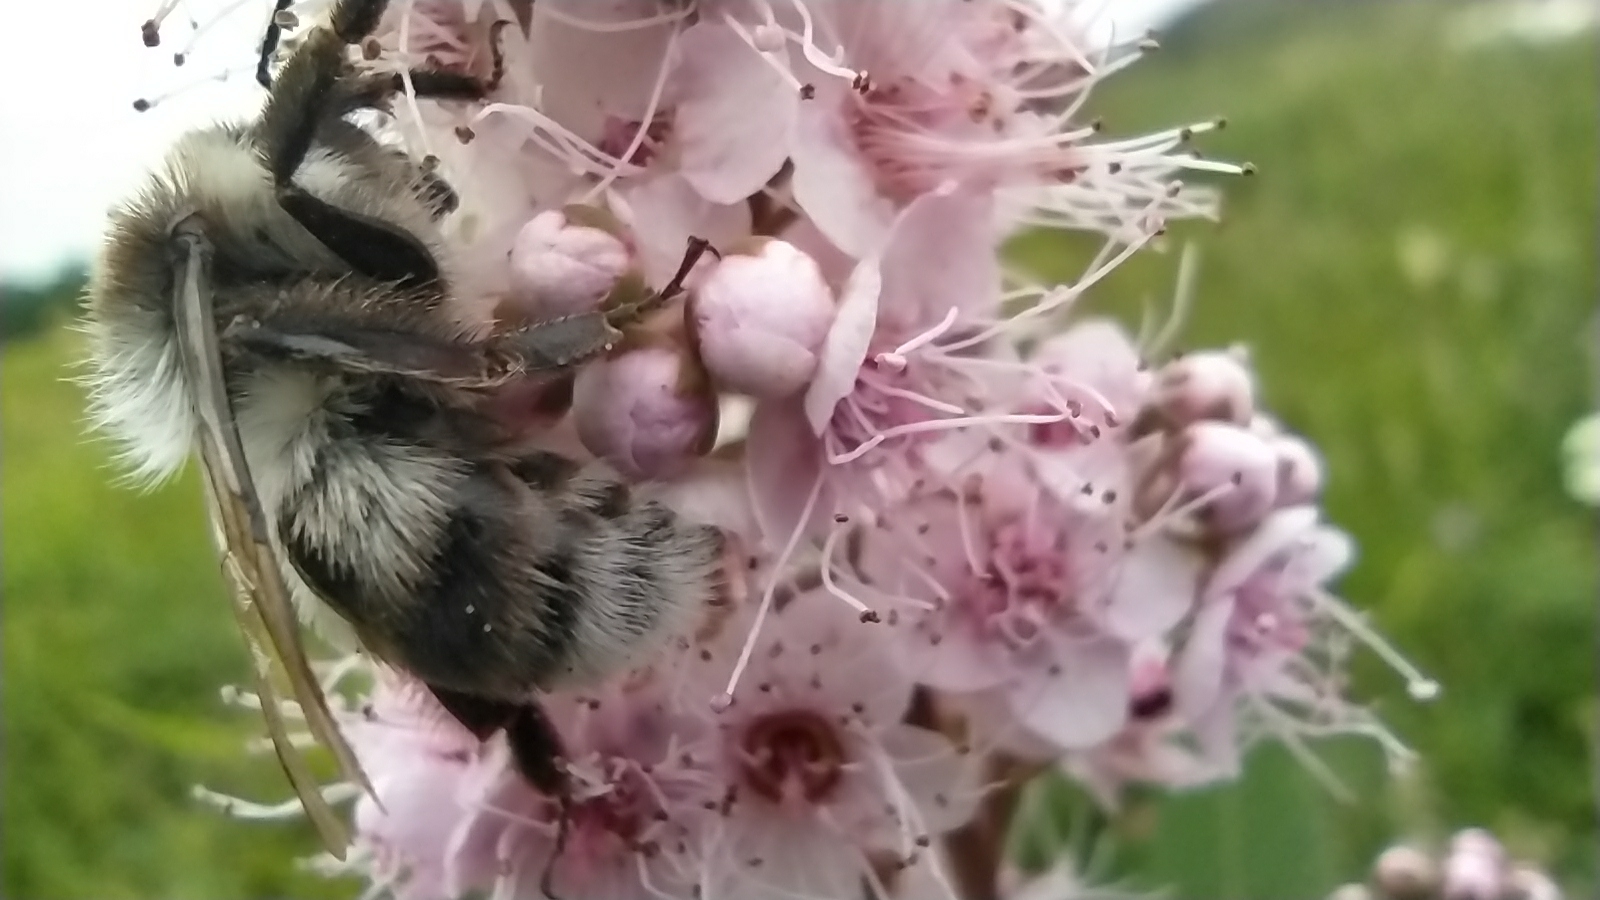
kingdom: Animalia
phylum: Arthropoda
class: Insecta
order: Hymenoptera
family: Apidae
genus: Bombus
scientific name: Bombus patagiatus
